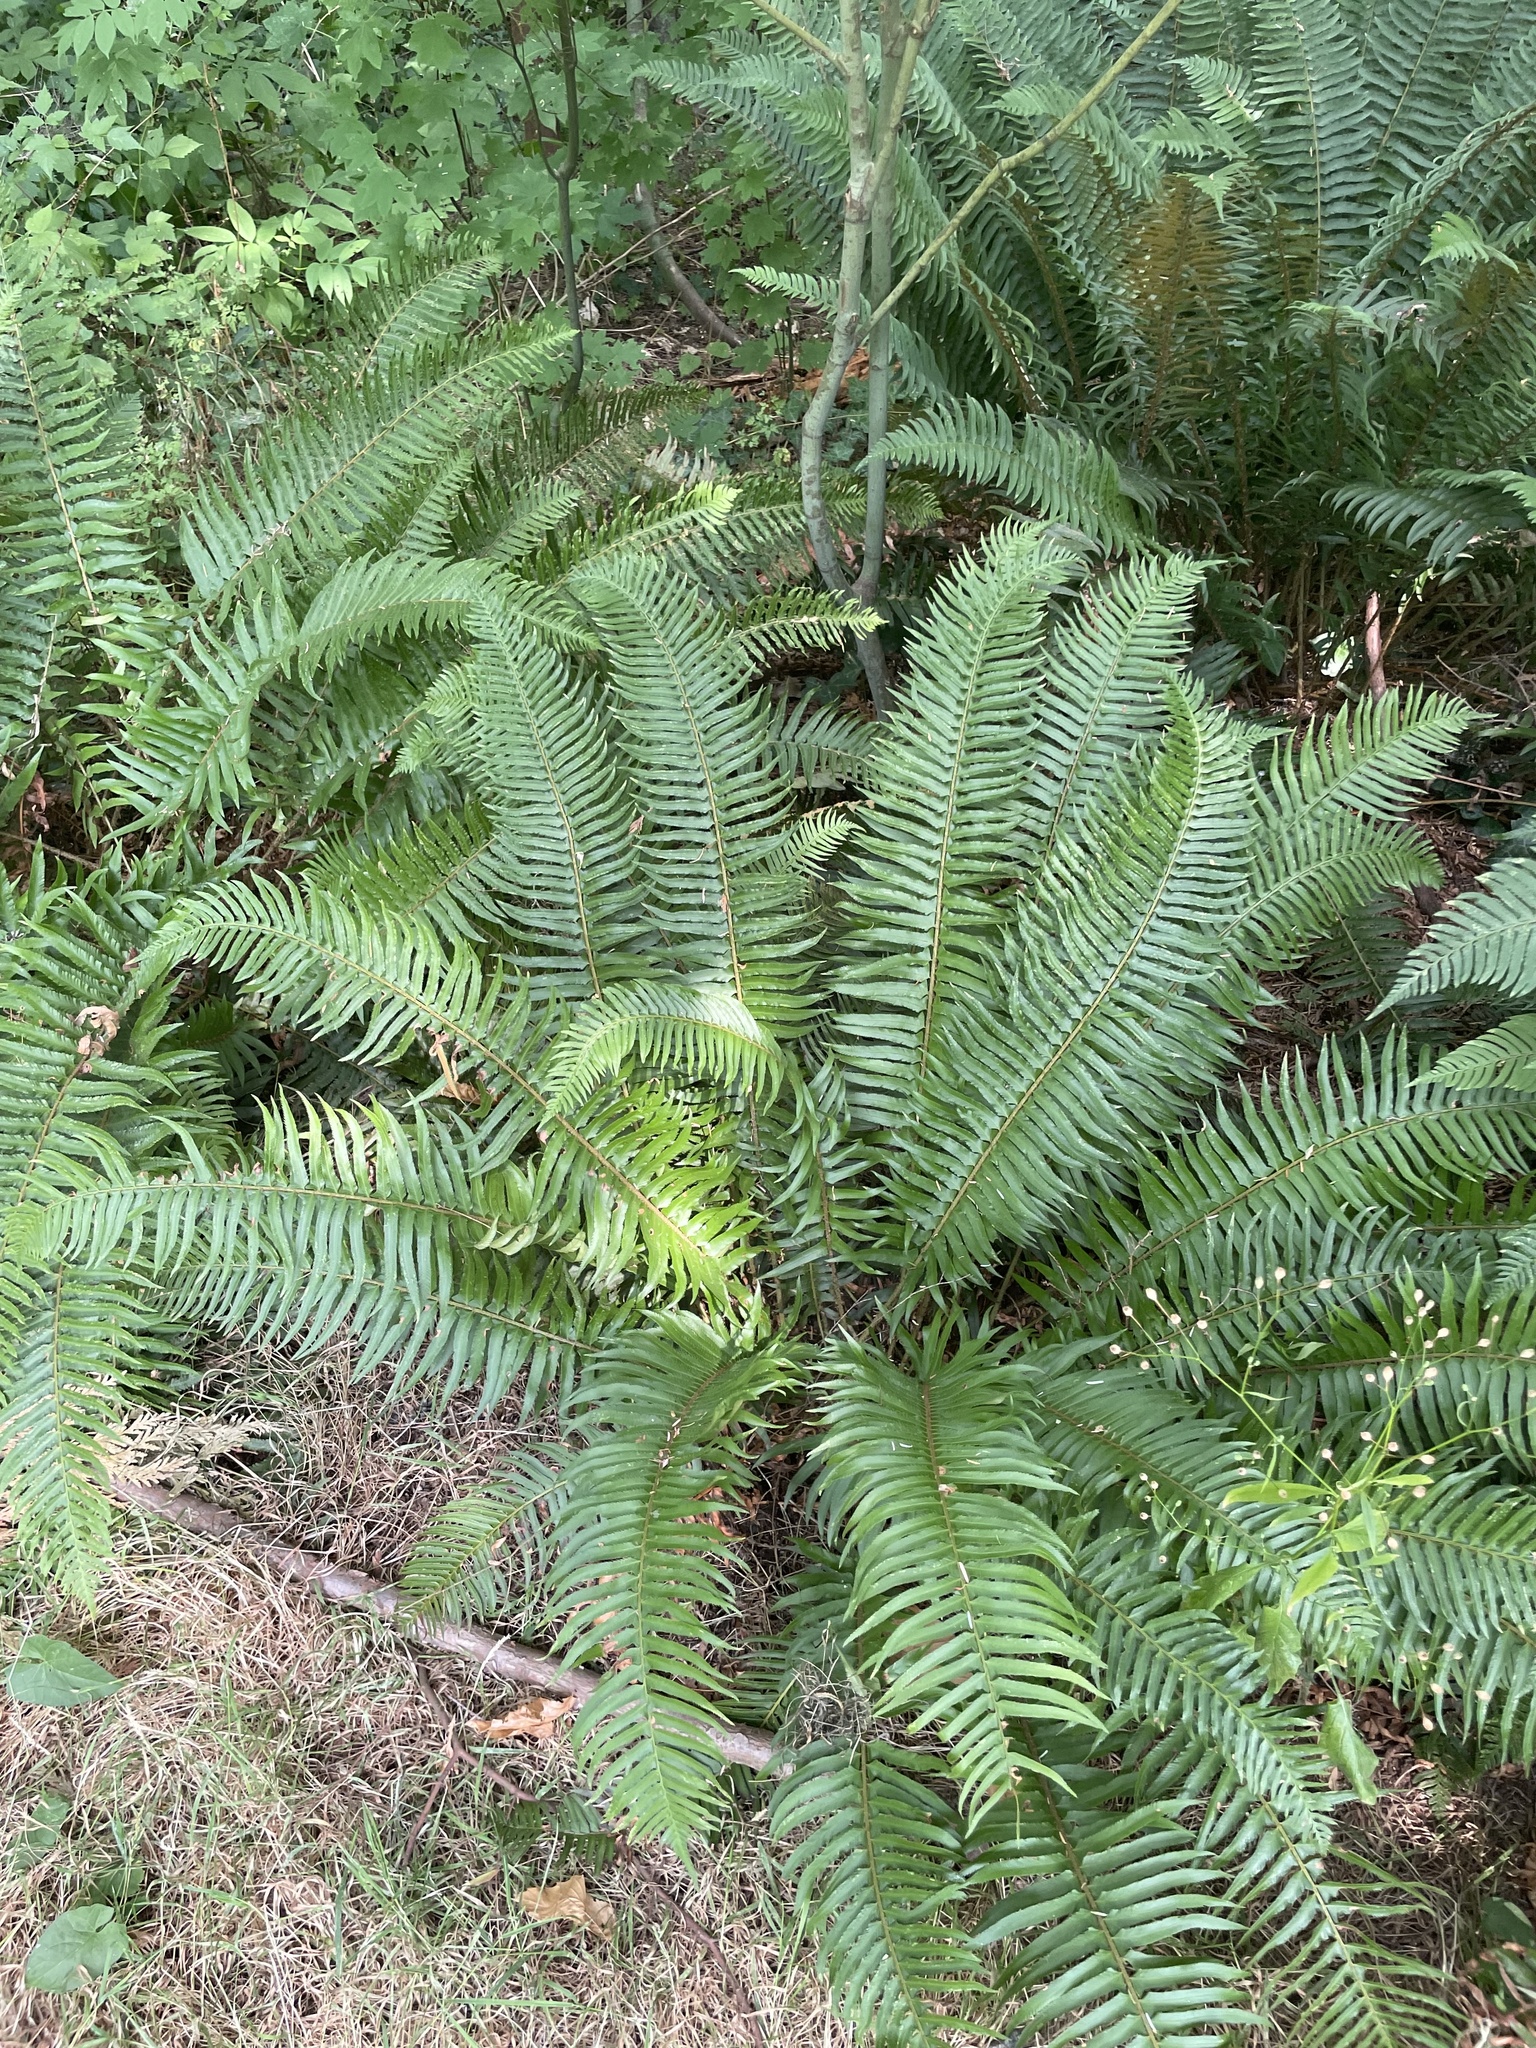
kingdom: Plantae
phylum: Tracheophyta
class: Polypodiopsida
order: Polypodiales
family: Dryopteridaceae
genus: Polystichum
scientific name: Polystichum munitum
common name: Western sword-fern
